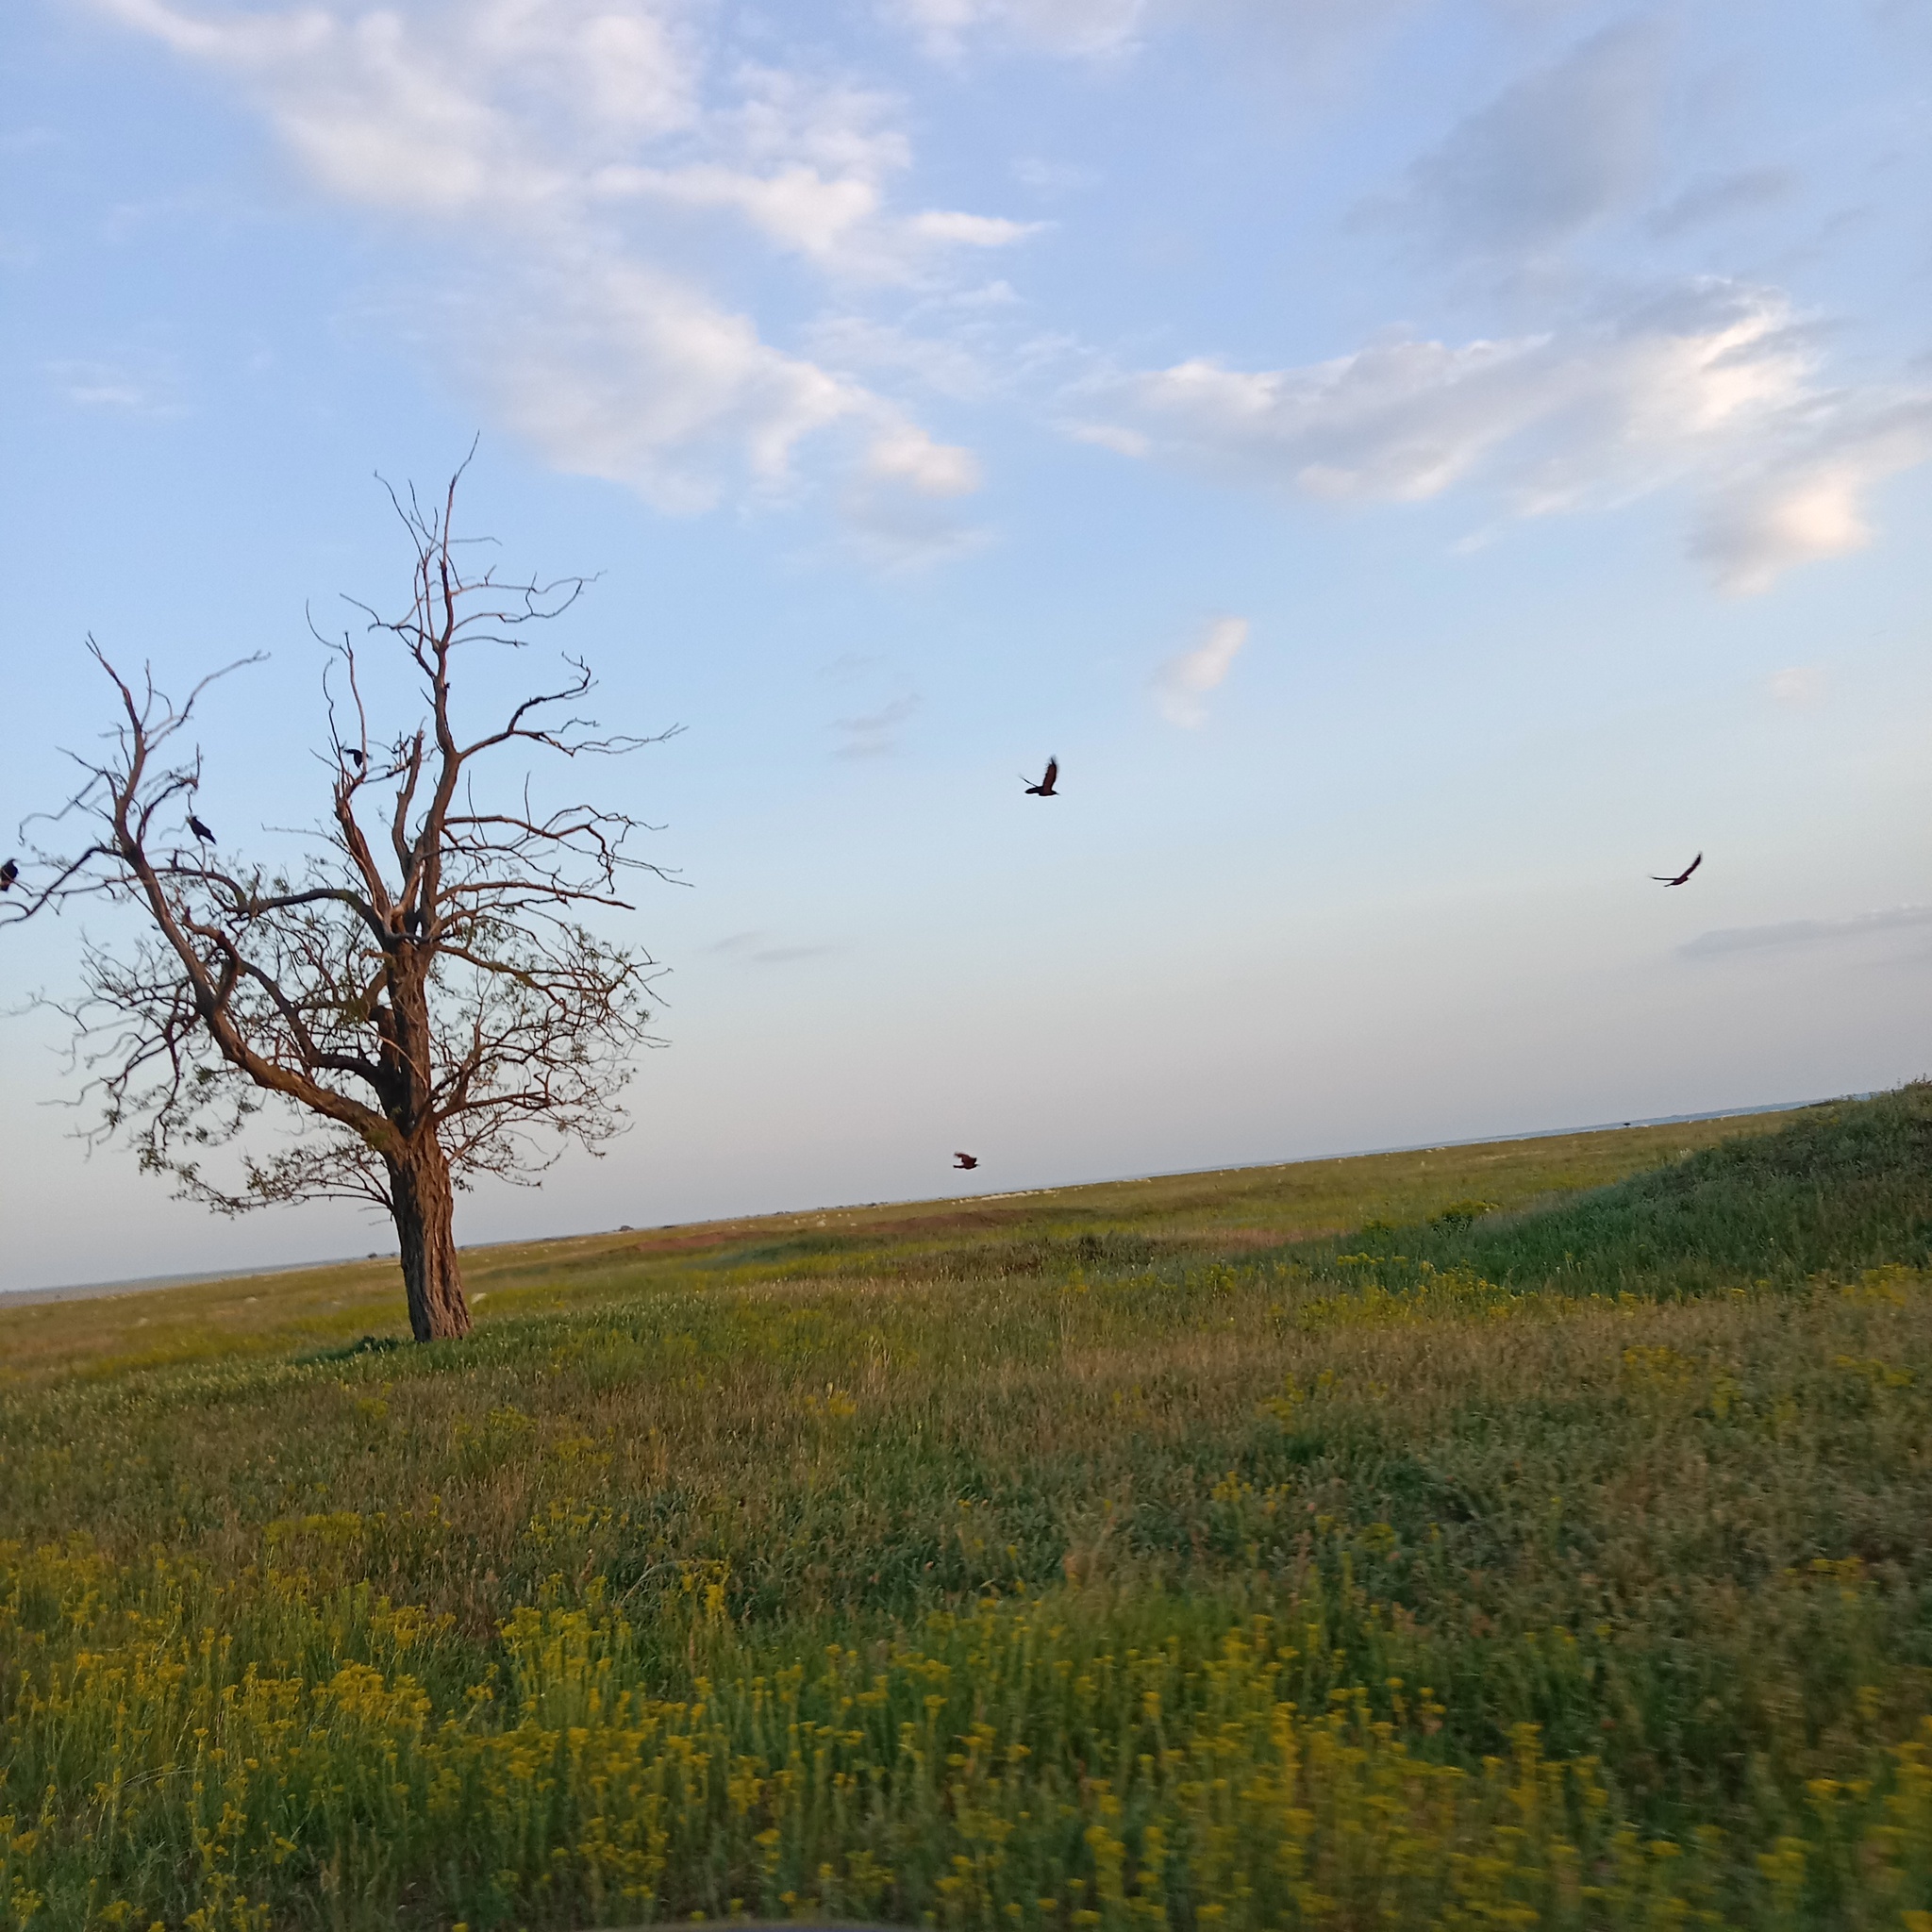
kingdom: Animalia
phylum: Chordata
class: Aves
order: Passeriformes
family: Corvidae
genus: Corvus
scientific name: Corvus corax
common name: Common raven
